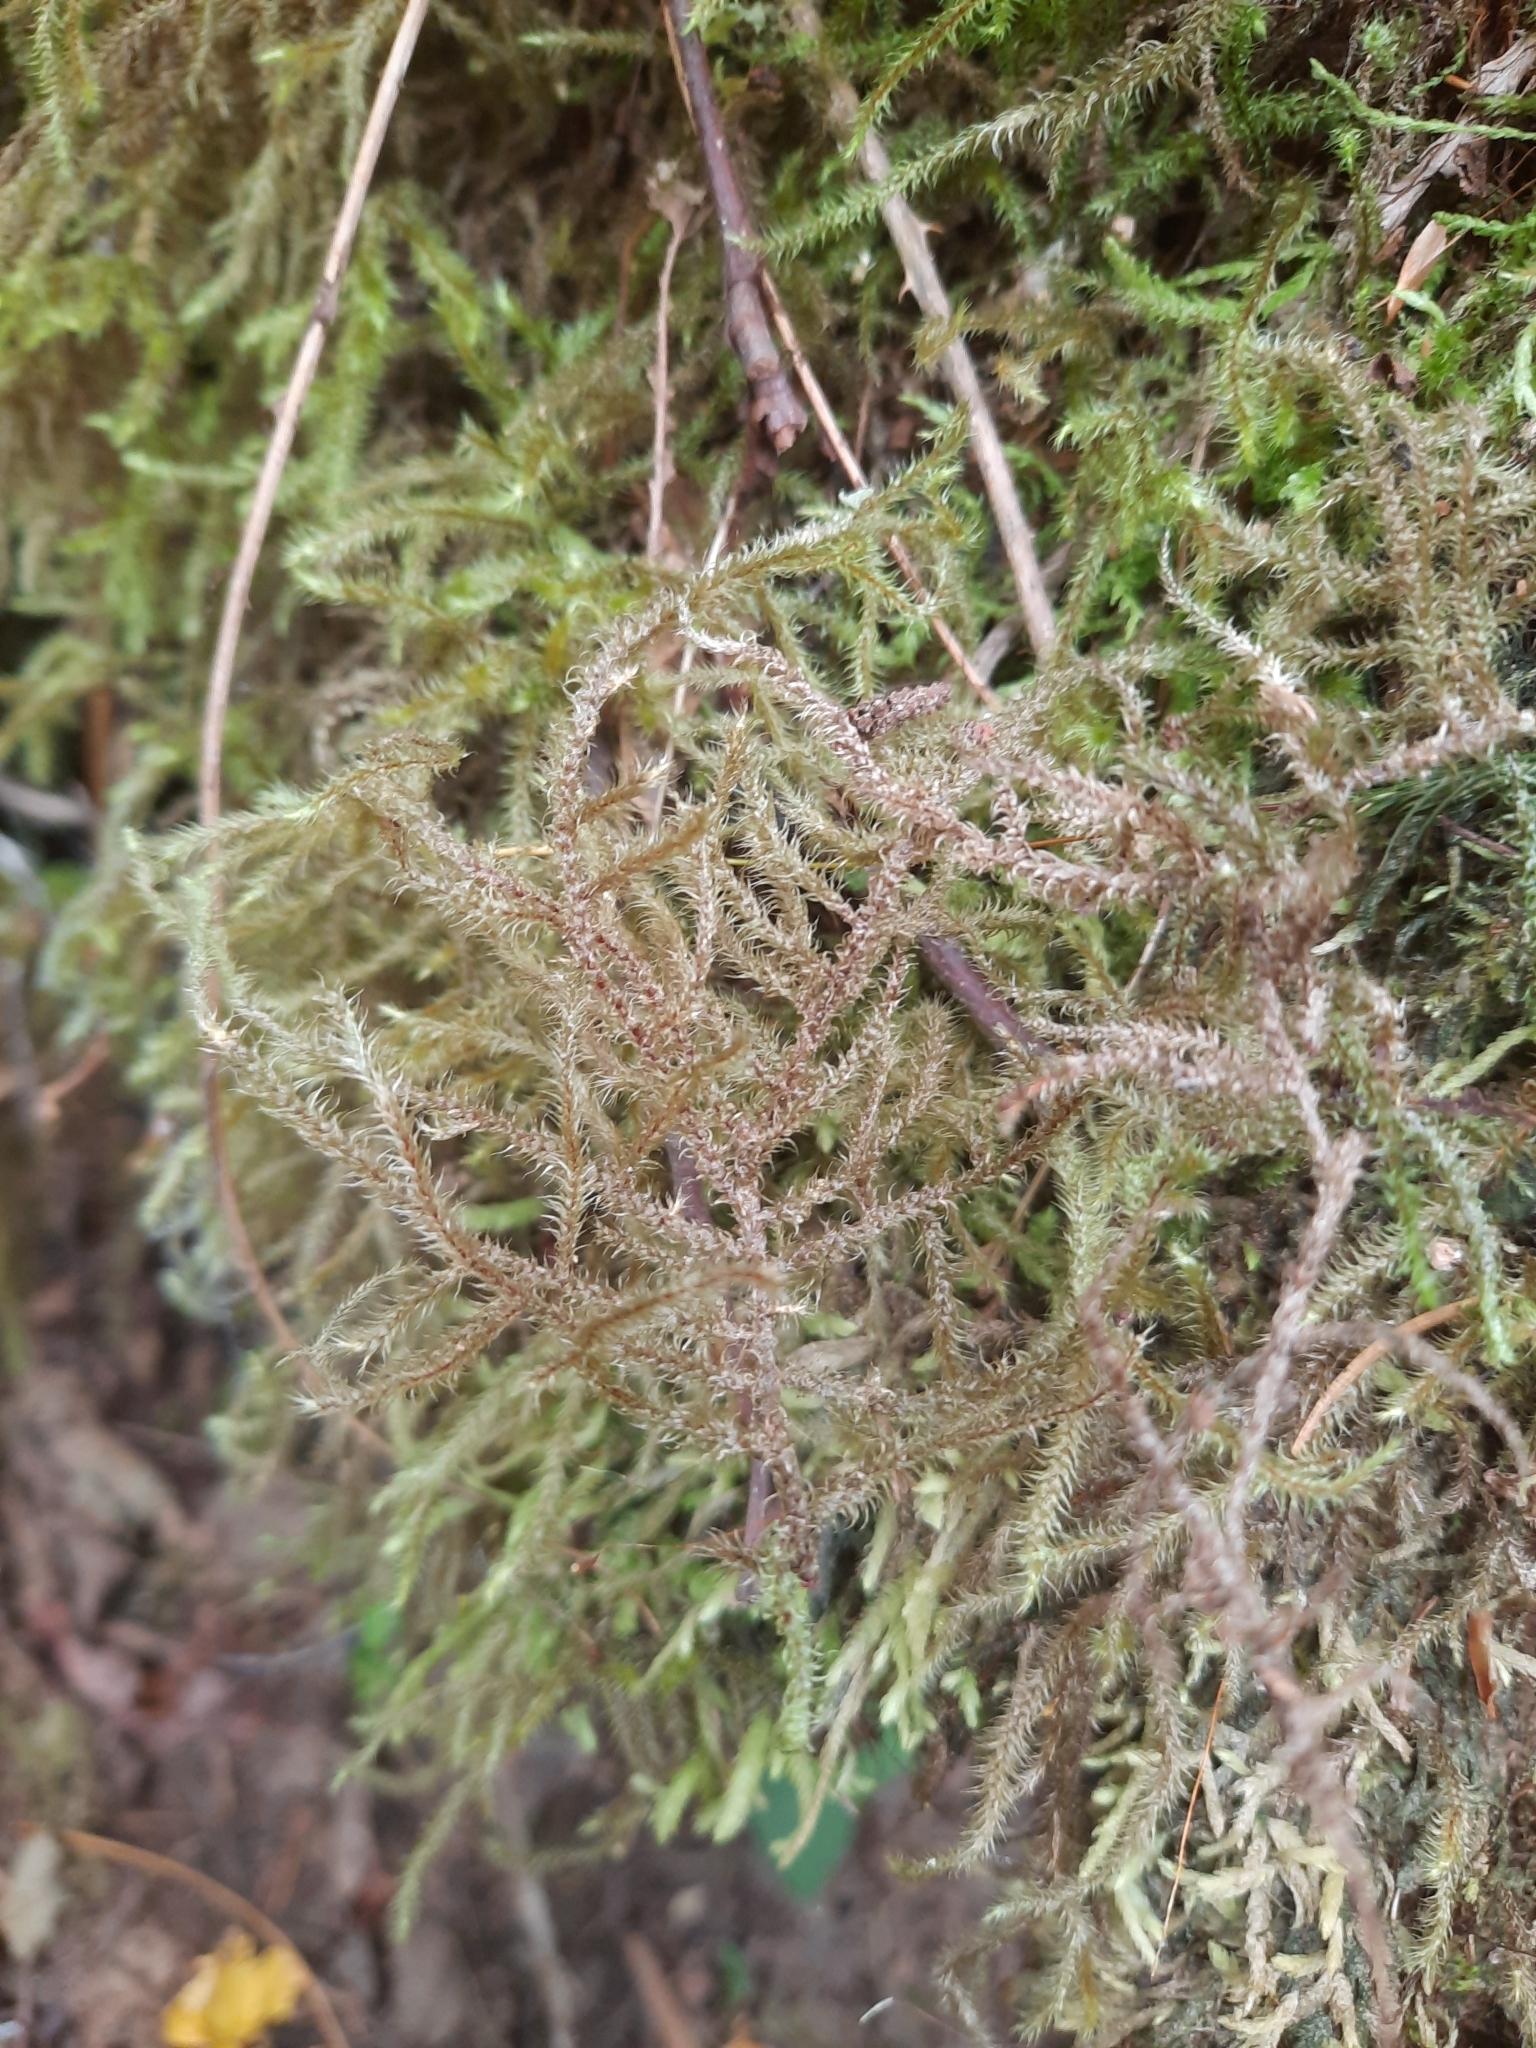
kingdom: Plantae
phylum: Bryophyta
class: Bryopsida
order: Hypnales
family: Hylocomiaceae
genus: Rhytidiadelphus
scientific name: Rhytidiadelphus loreus
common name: Lanky moss
